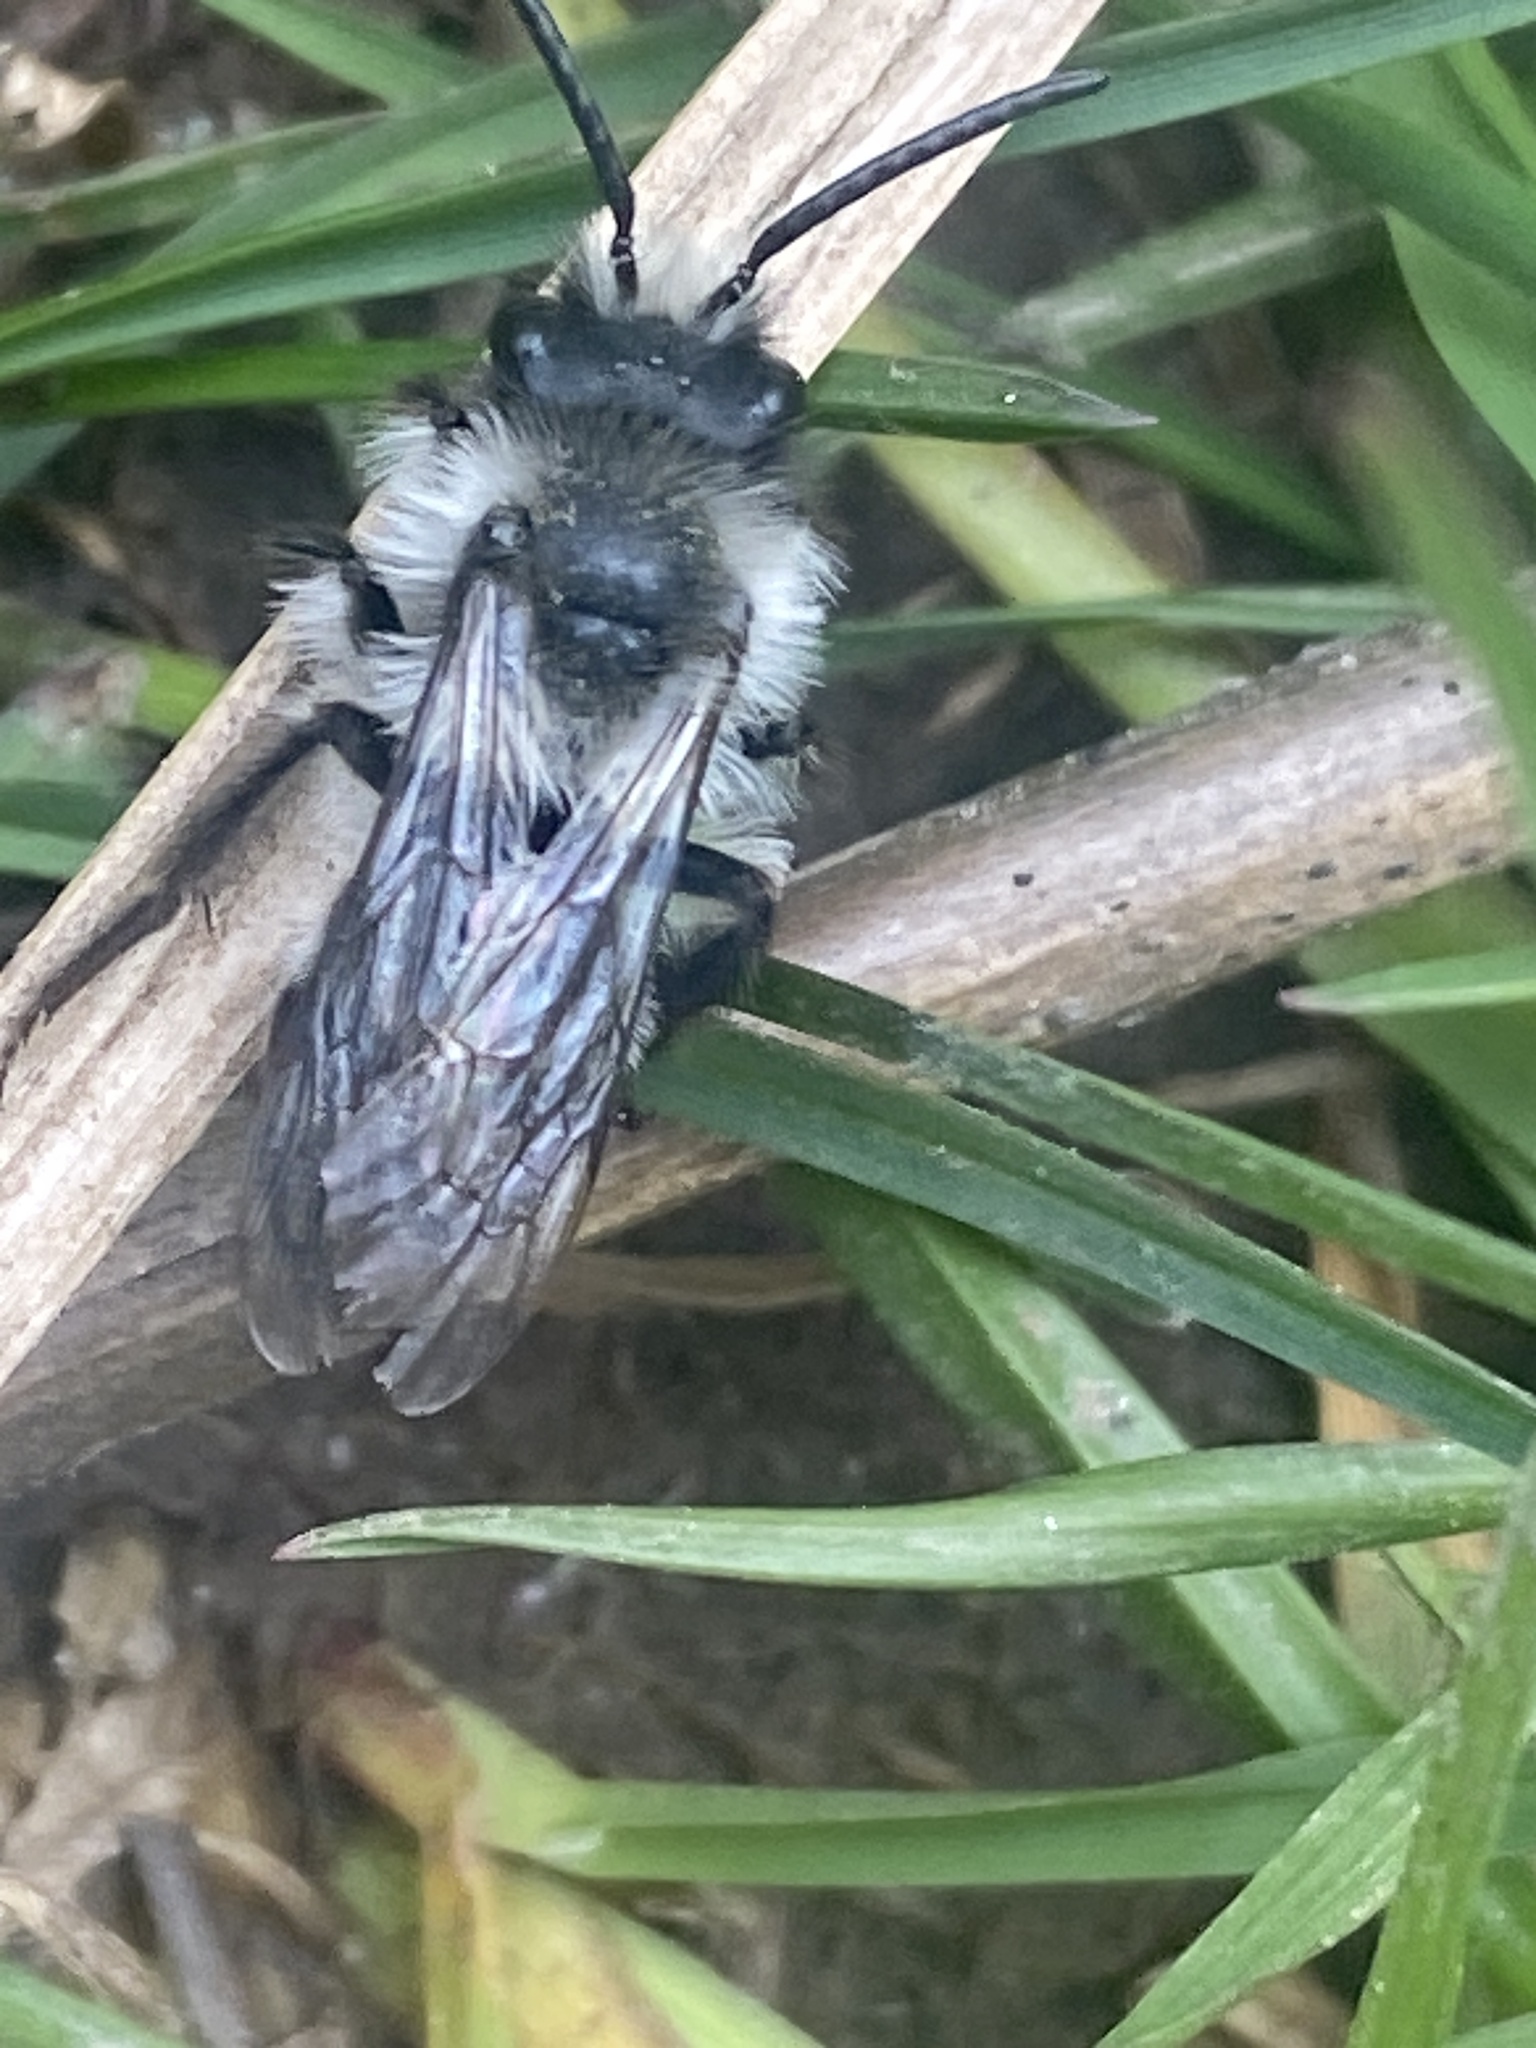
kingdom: Animalia
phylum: Arthropoda
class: Insecta
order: Hymenoptera
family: Andrenidae
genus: Andrena
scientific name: Andrena cineraria
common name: Ashy mining bee
